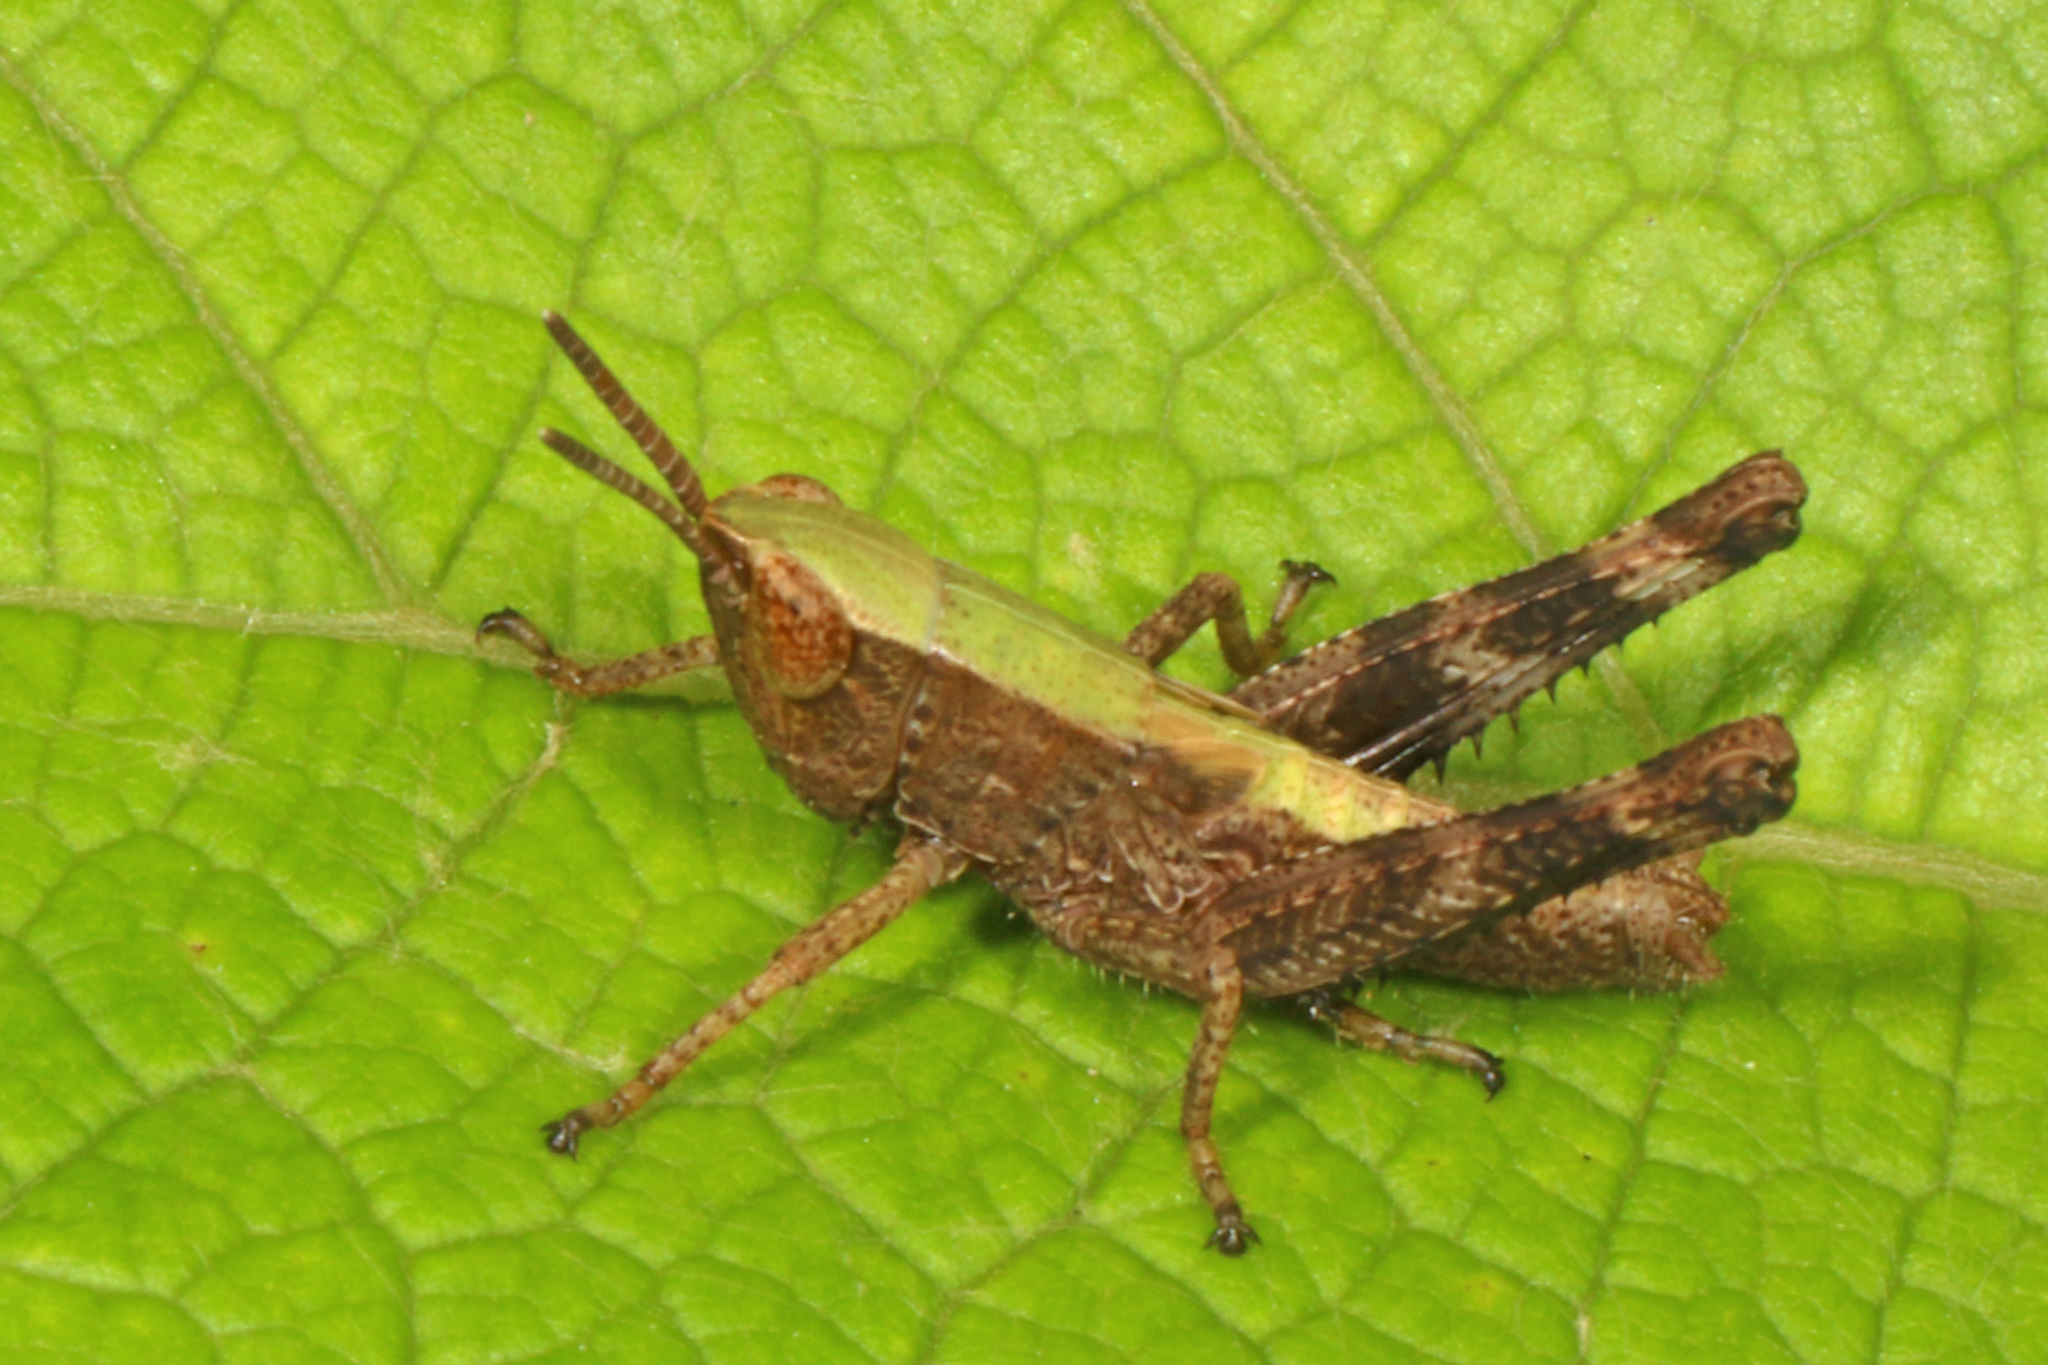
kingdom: Animalia
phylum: Arthropoda
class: Insecta
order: Orthoptera
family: Acrididae
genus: Dichromorpha
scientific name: Dichromorpha viridis
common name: Short-winged green grasshopper
